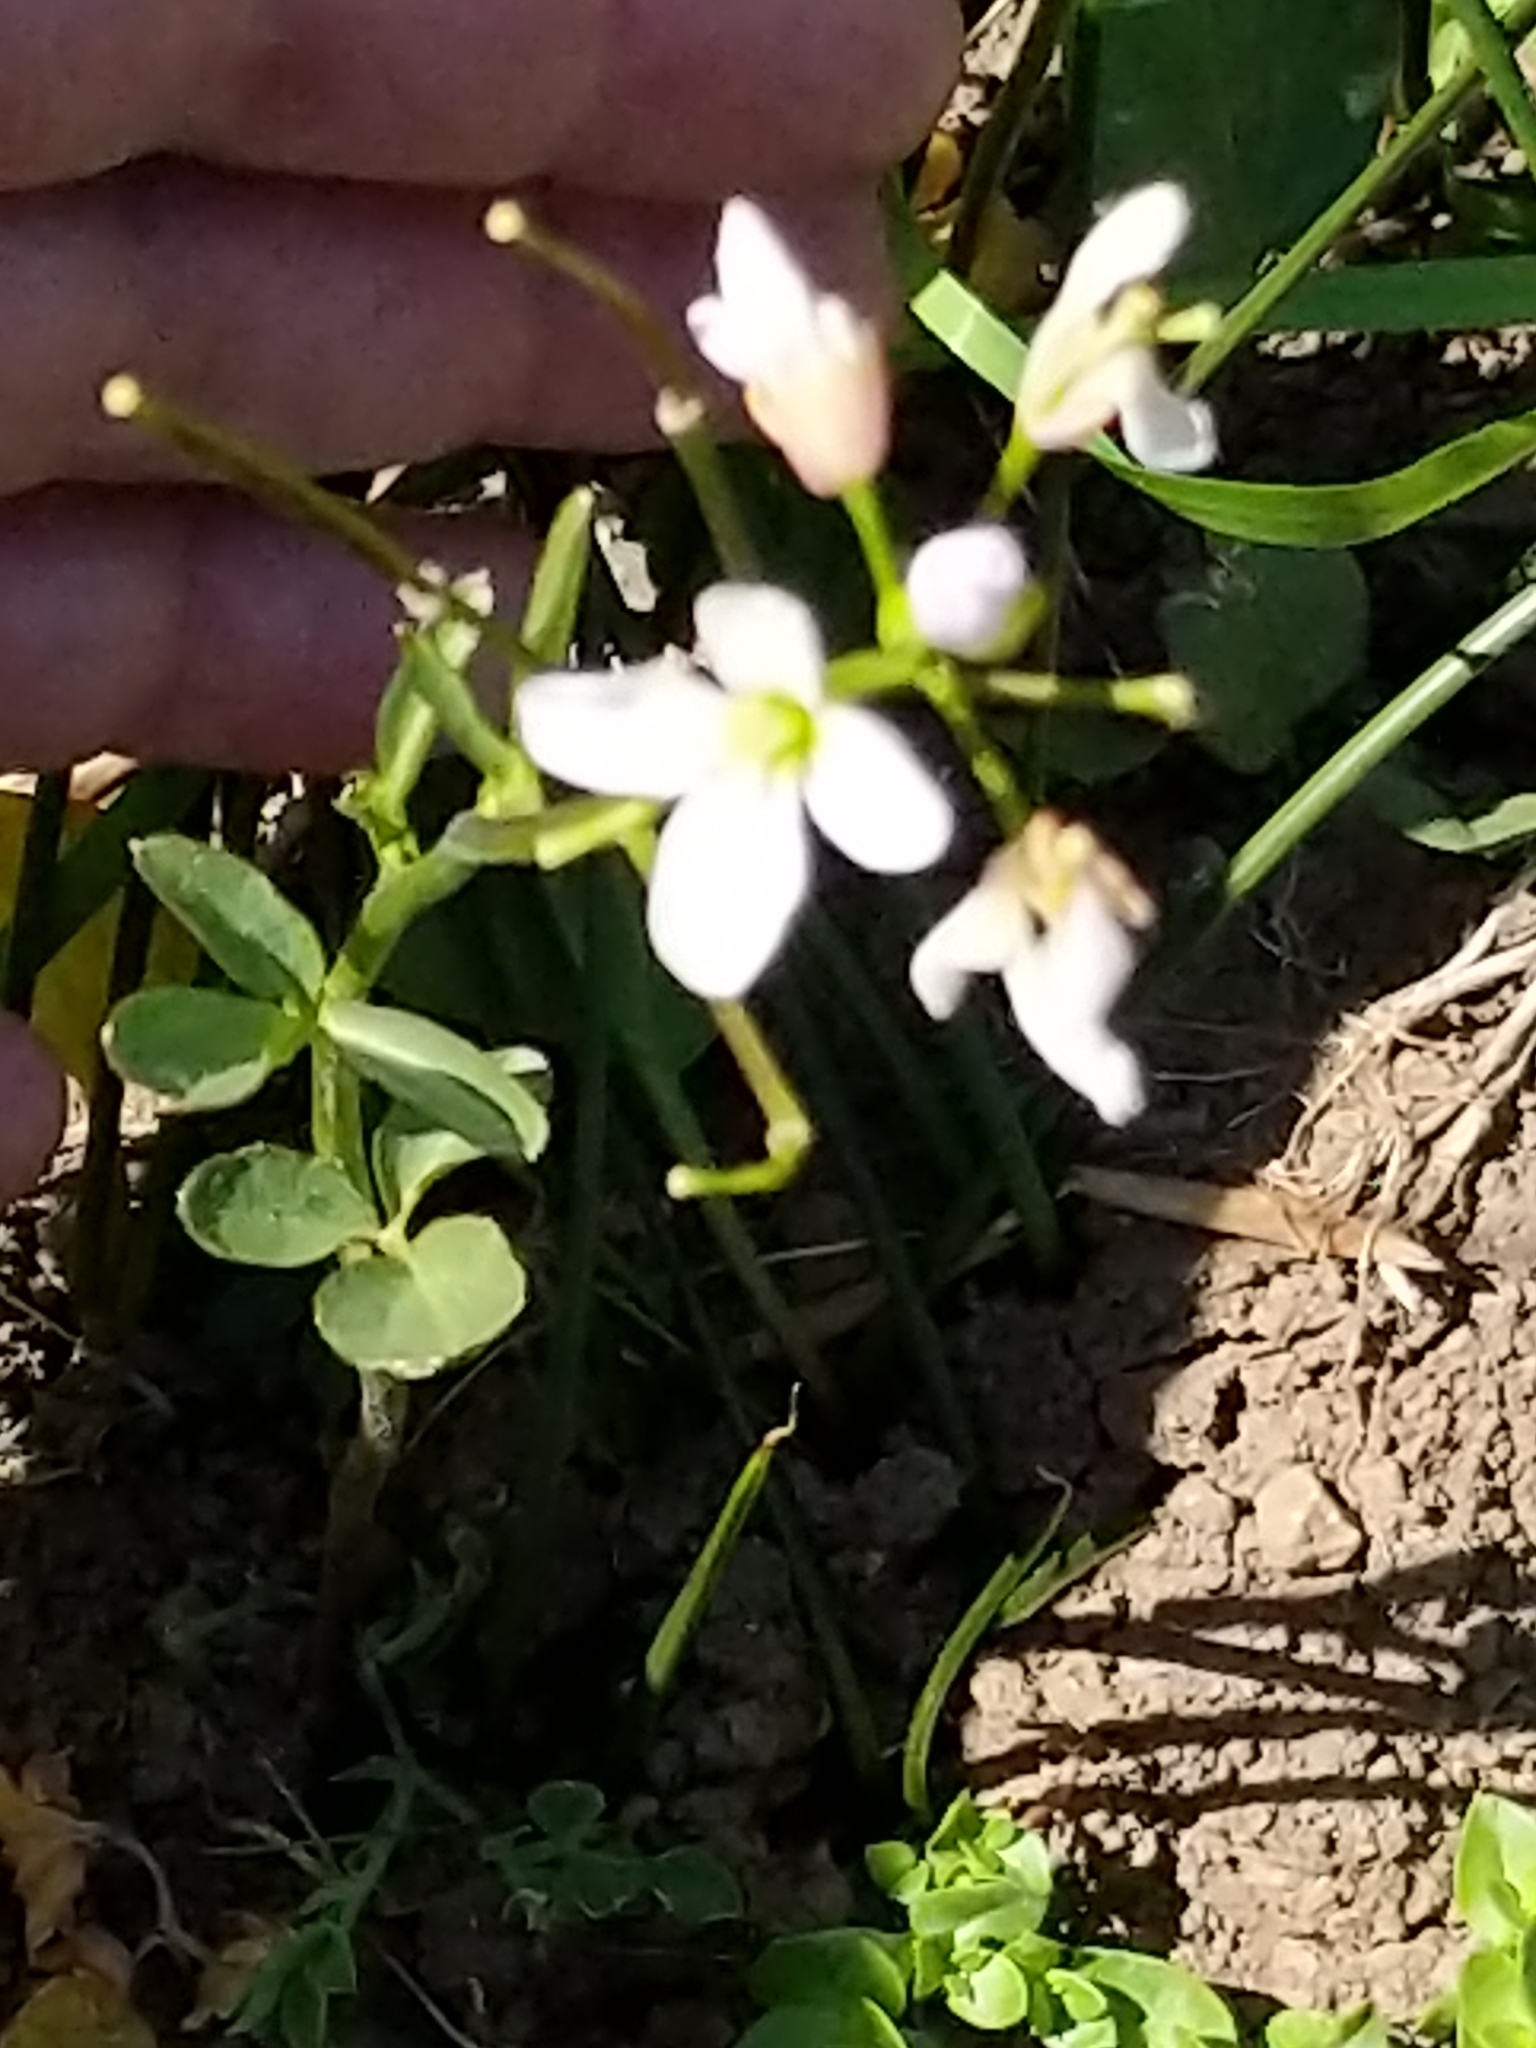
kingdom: Plantae
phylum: Tracheophyta
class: Magnoliopsida
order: Brassicales
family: Brassicaceae
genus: Cardamine
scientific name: Cardamine californica
